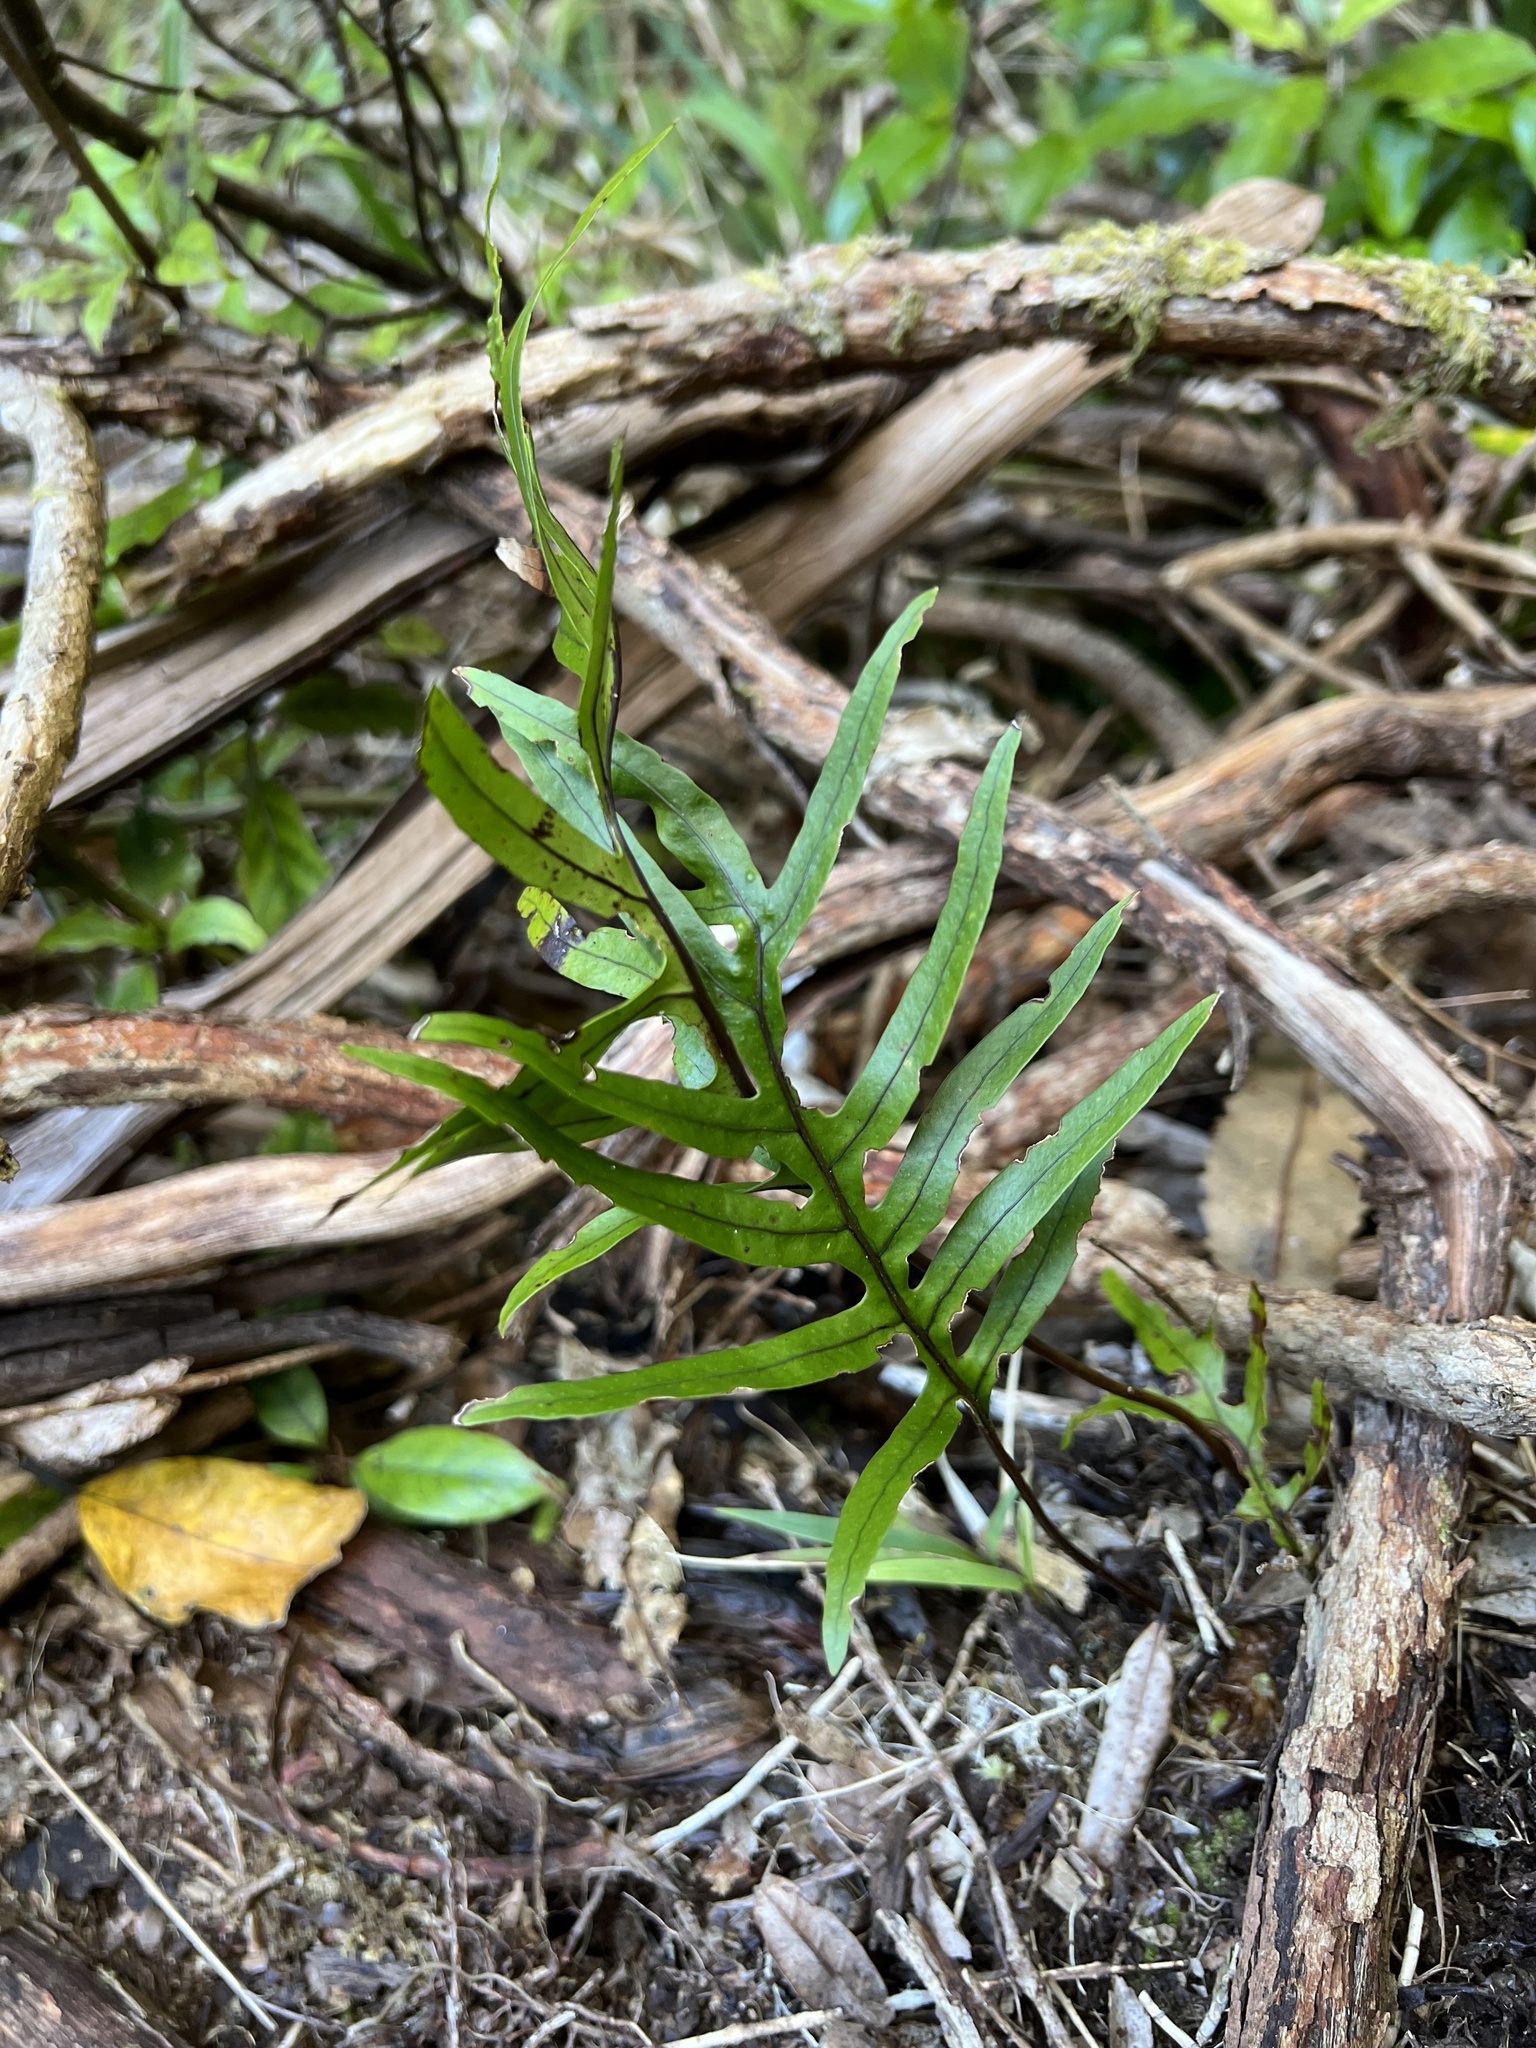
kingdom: Plantae
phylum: Tracheophyta
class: Polypodiopsida
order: Polypodiales
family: Polypodiaceae
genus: Lecanopteris
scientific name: Lecanopteris novae-zealandiae
